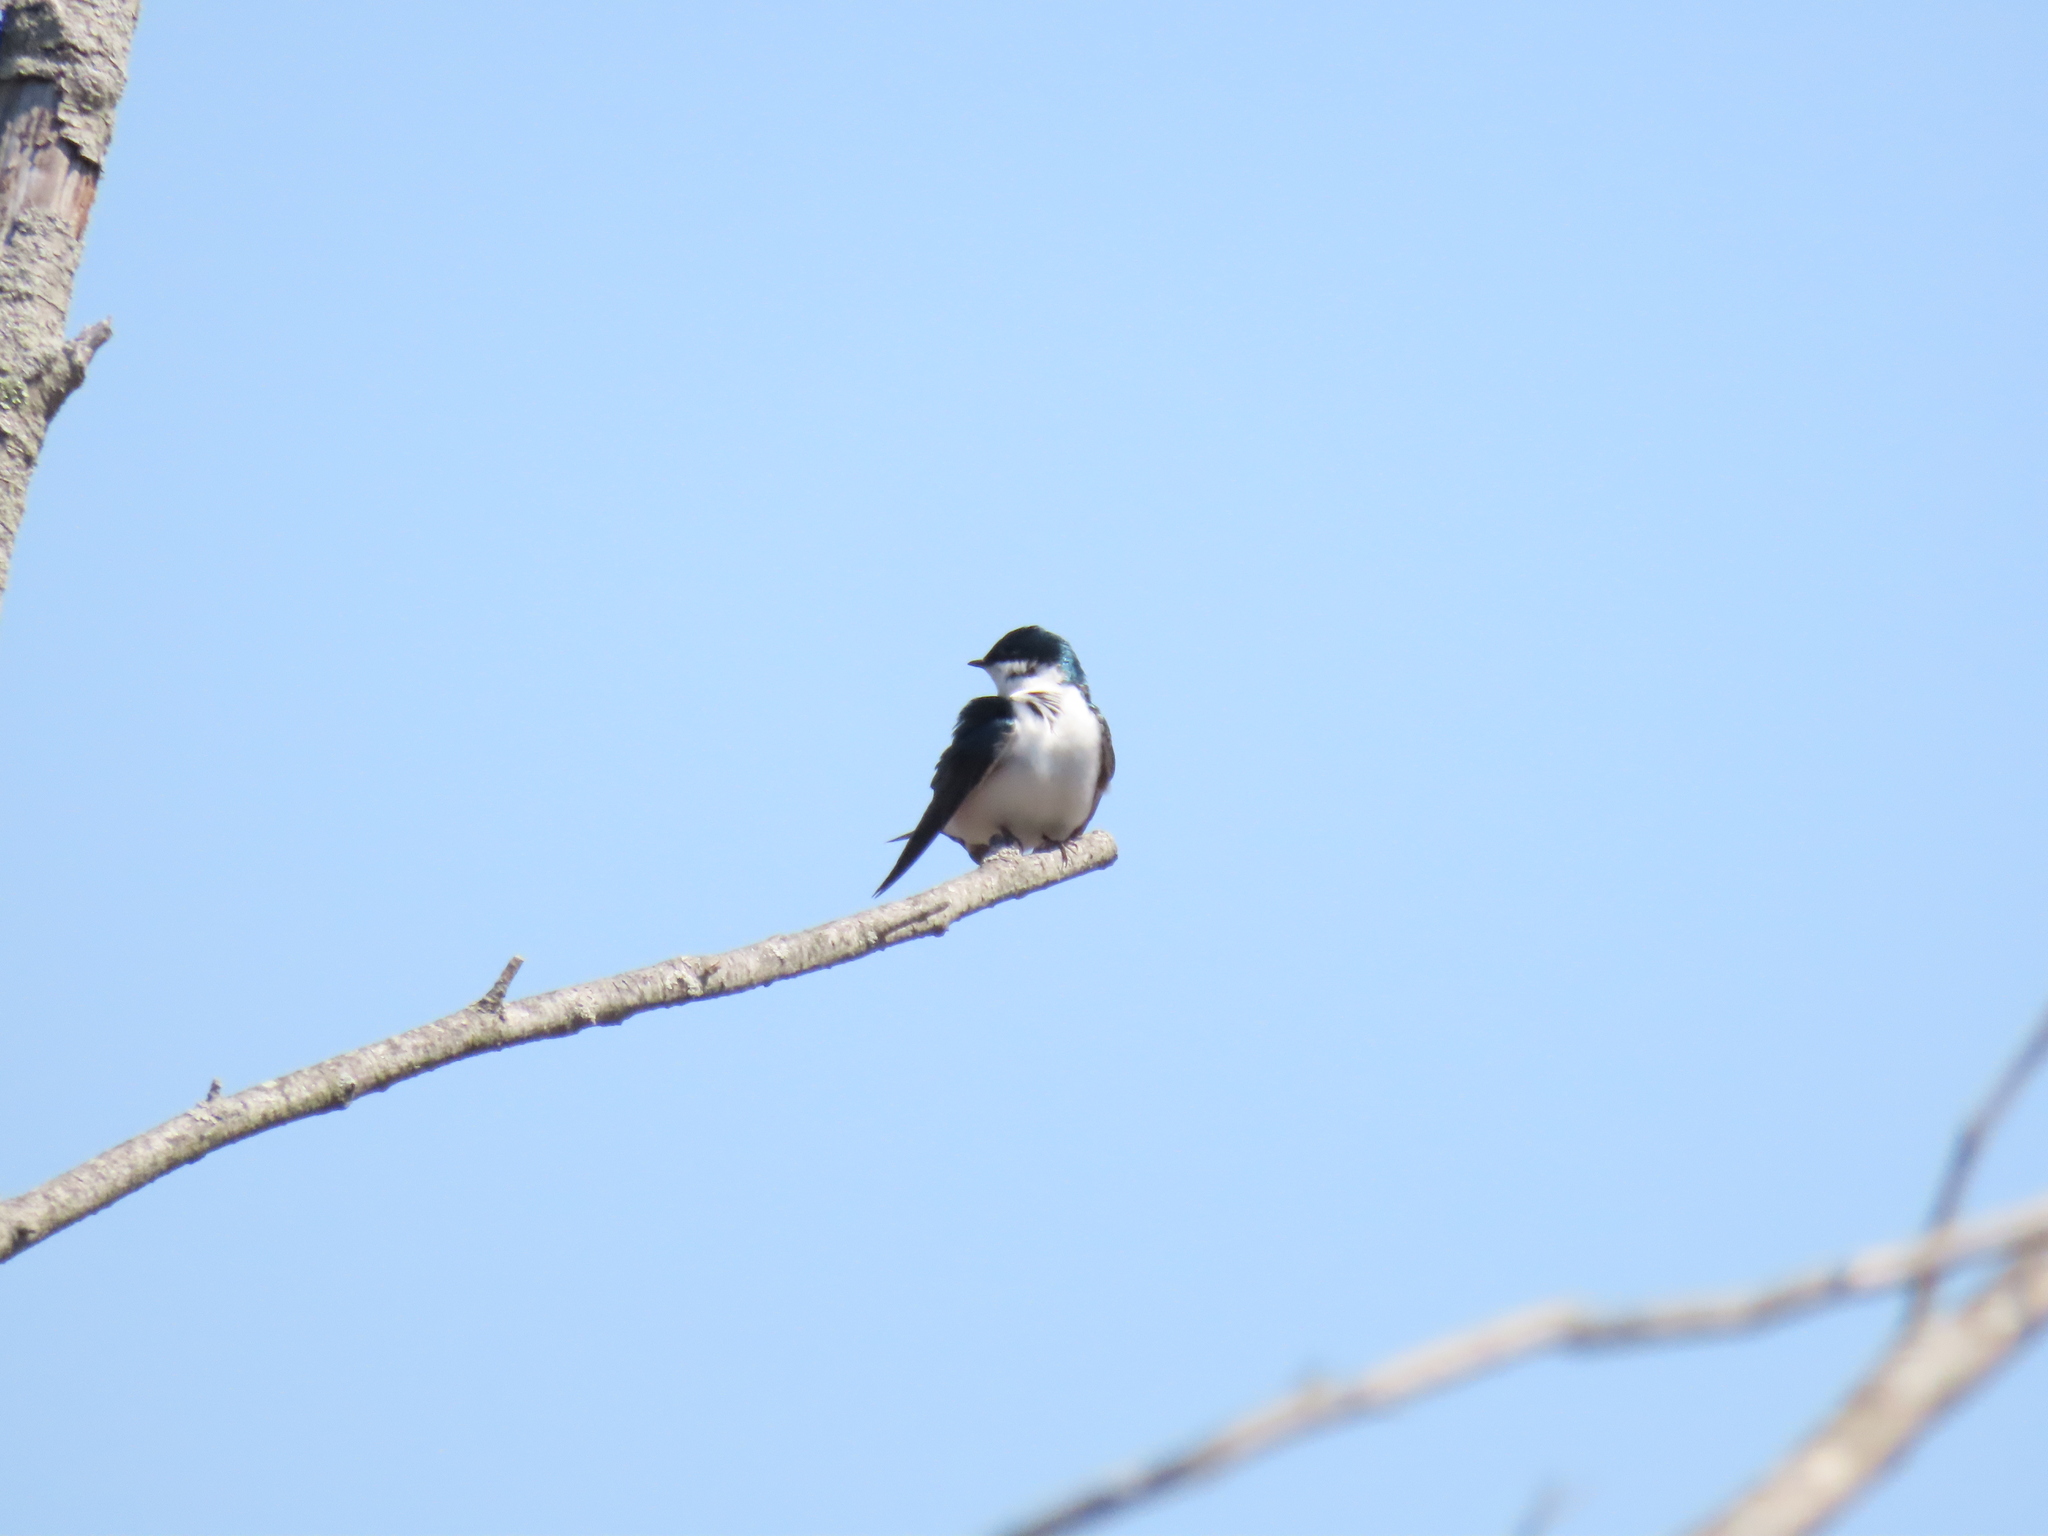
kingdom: Animalia
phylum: Chordata
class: Aves
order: Passeriformes
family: Hirundinidae
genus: Tachycineta
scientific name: Tachycineta bicolor
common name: Tree swallow
